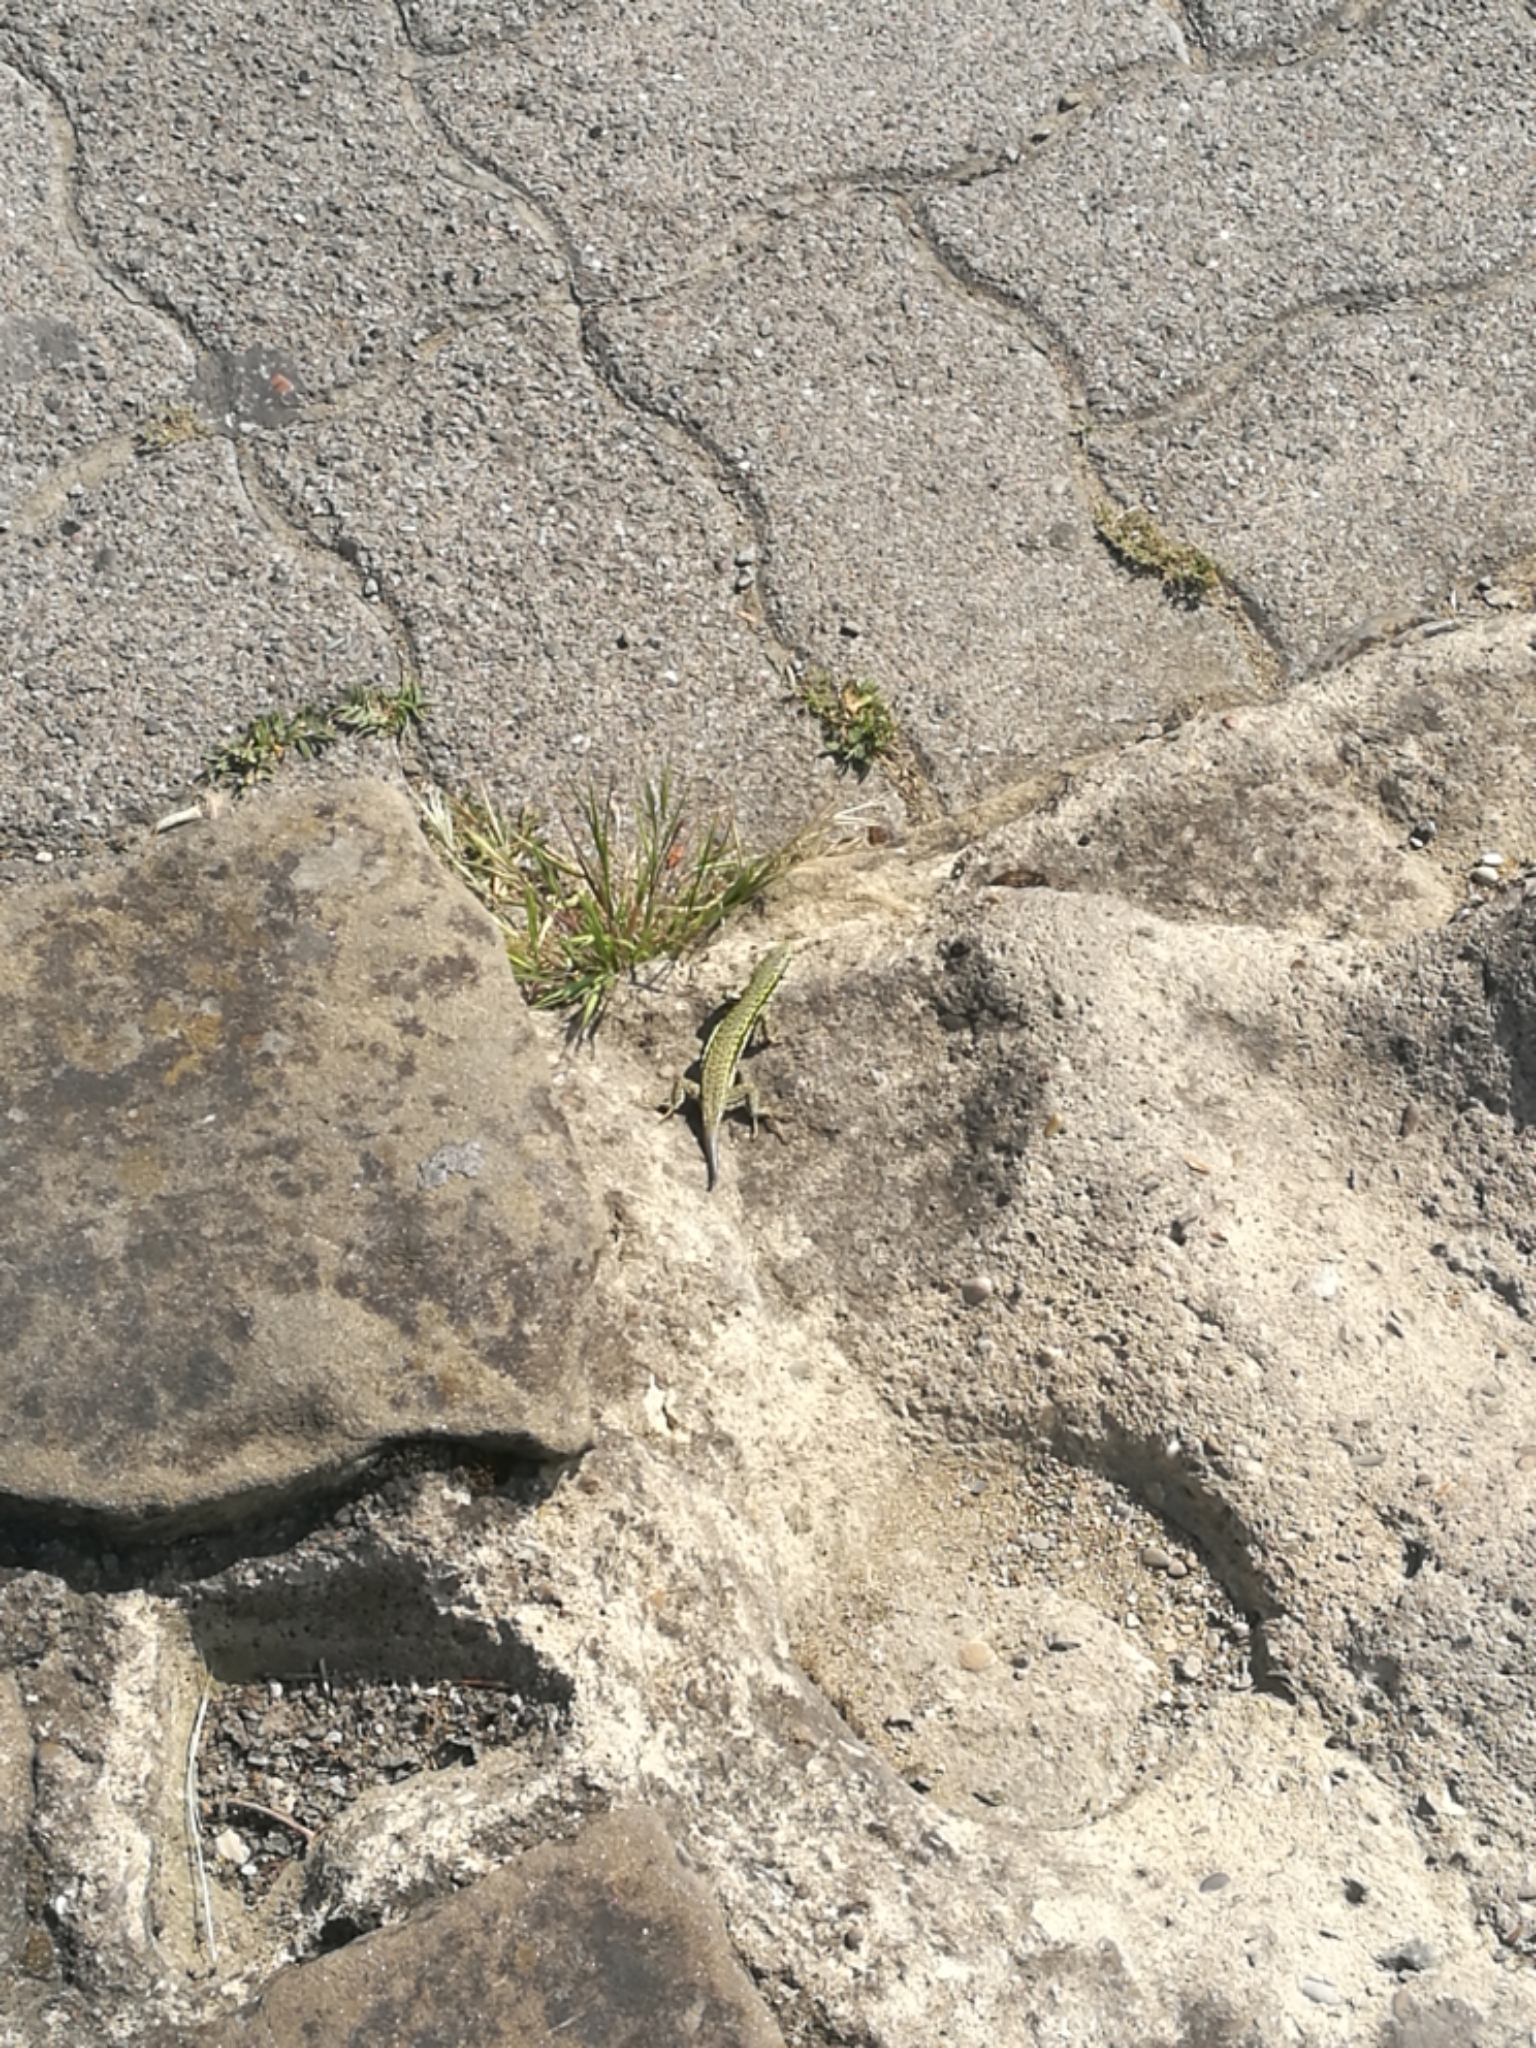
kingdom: Animalia
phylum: Chordata
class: Squamata
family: Lacertidae
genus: Podarcis
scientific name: Podarcis muralis
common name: Common wall lizard
